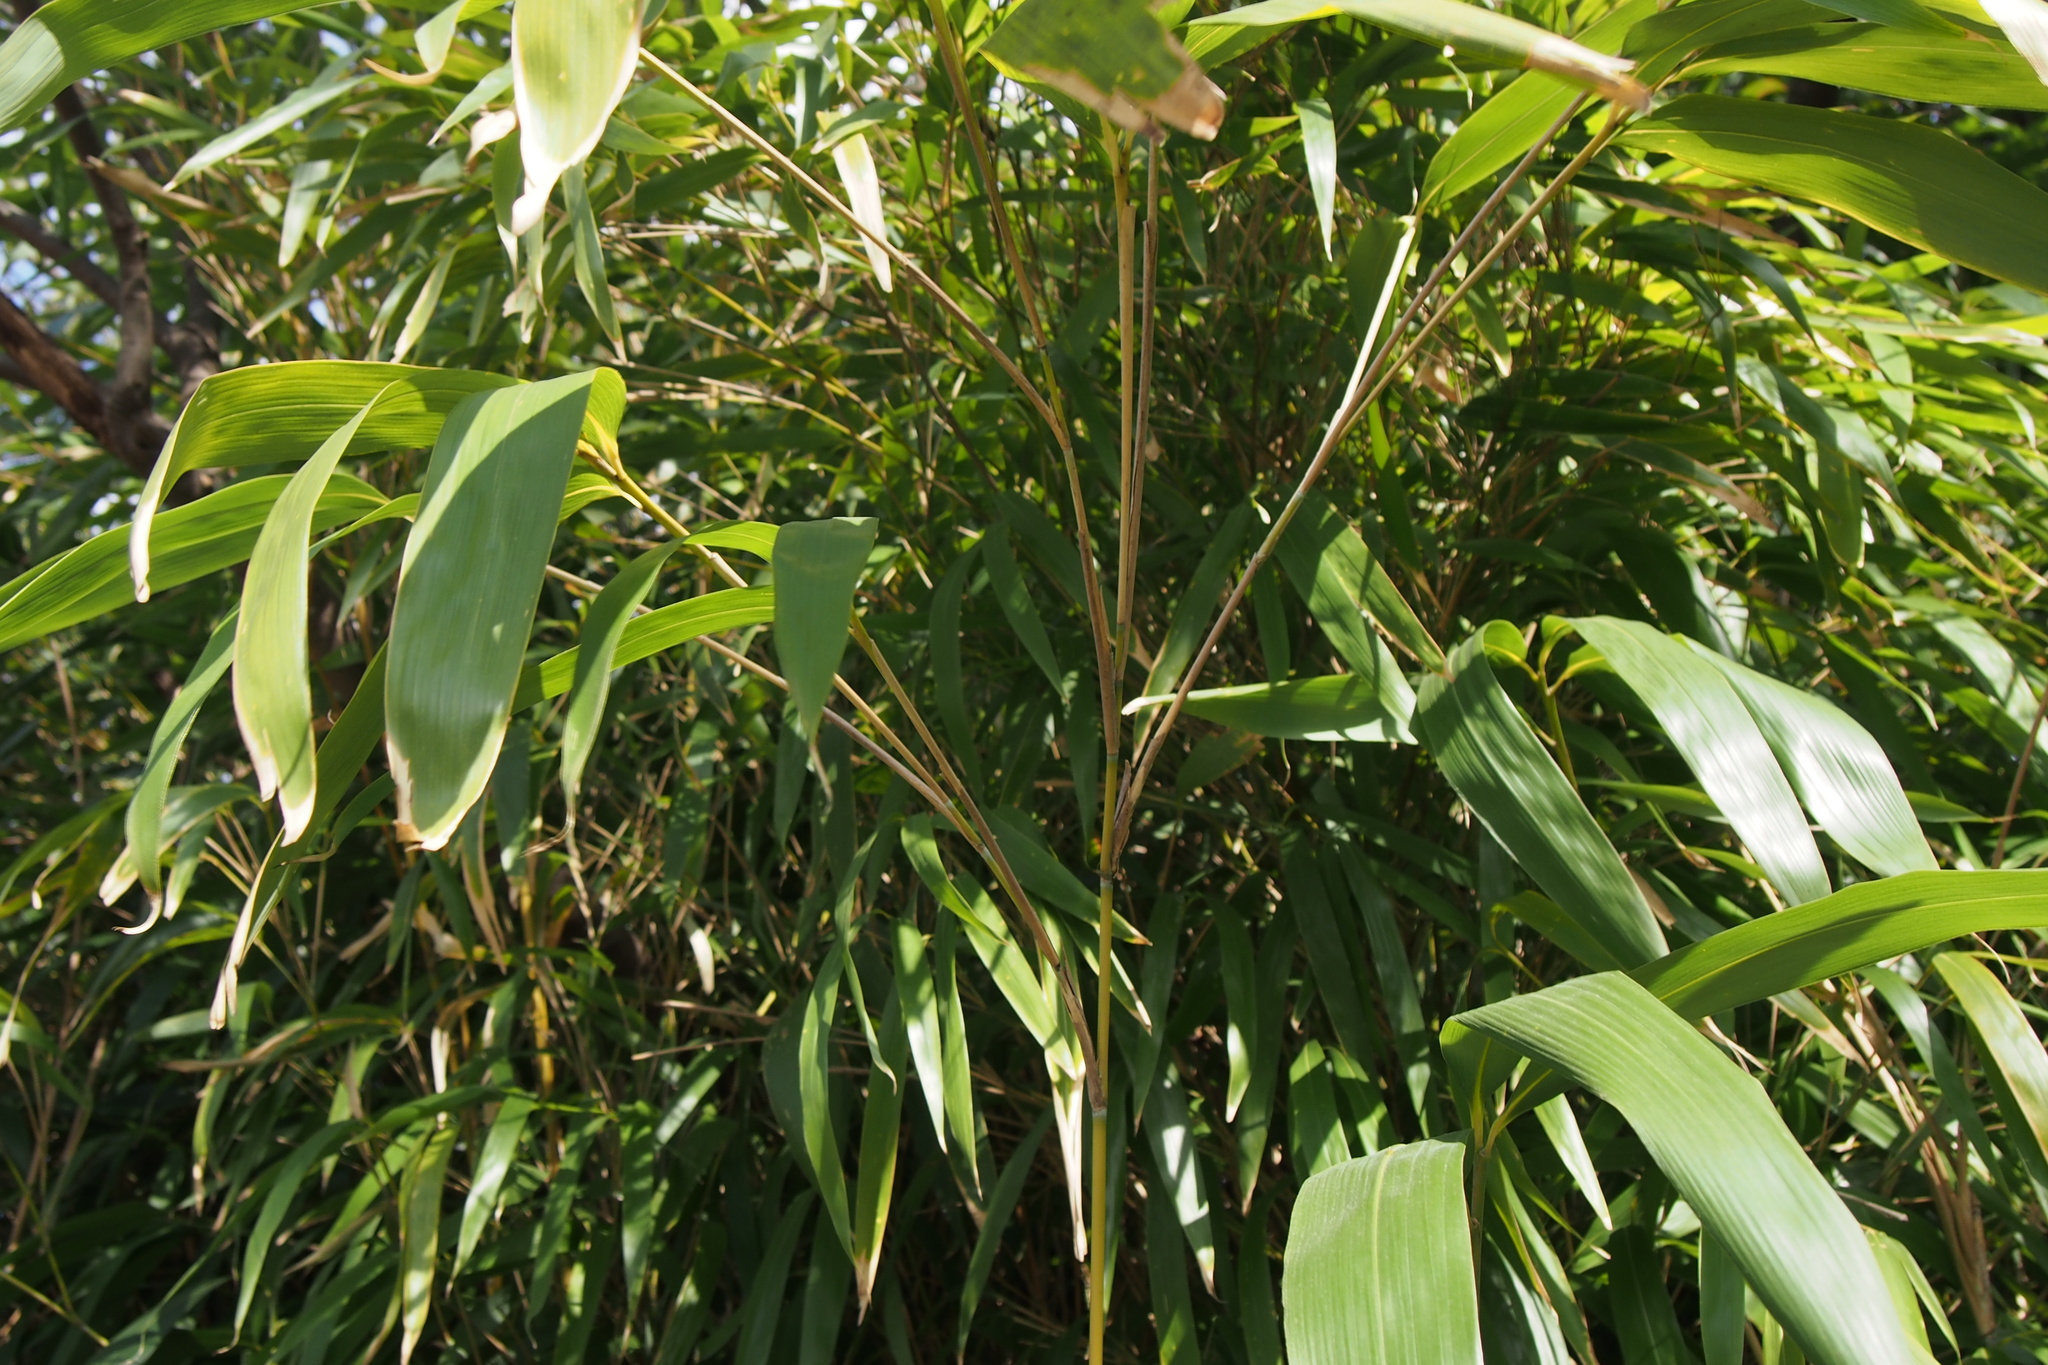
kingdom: Plantae
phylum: Tracheophyta
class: Liliopsida
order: Poales
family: Poaceae
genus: Pseudosasa
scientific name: Pseudosasa japonica
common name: Arrow bamboo
